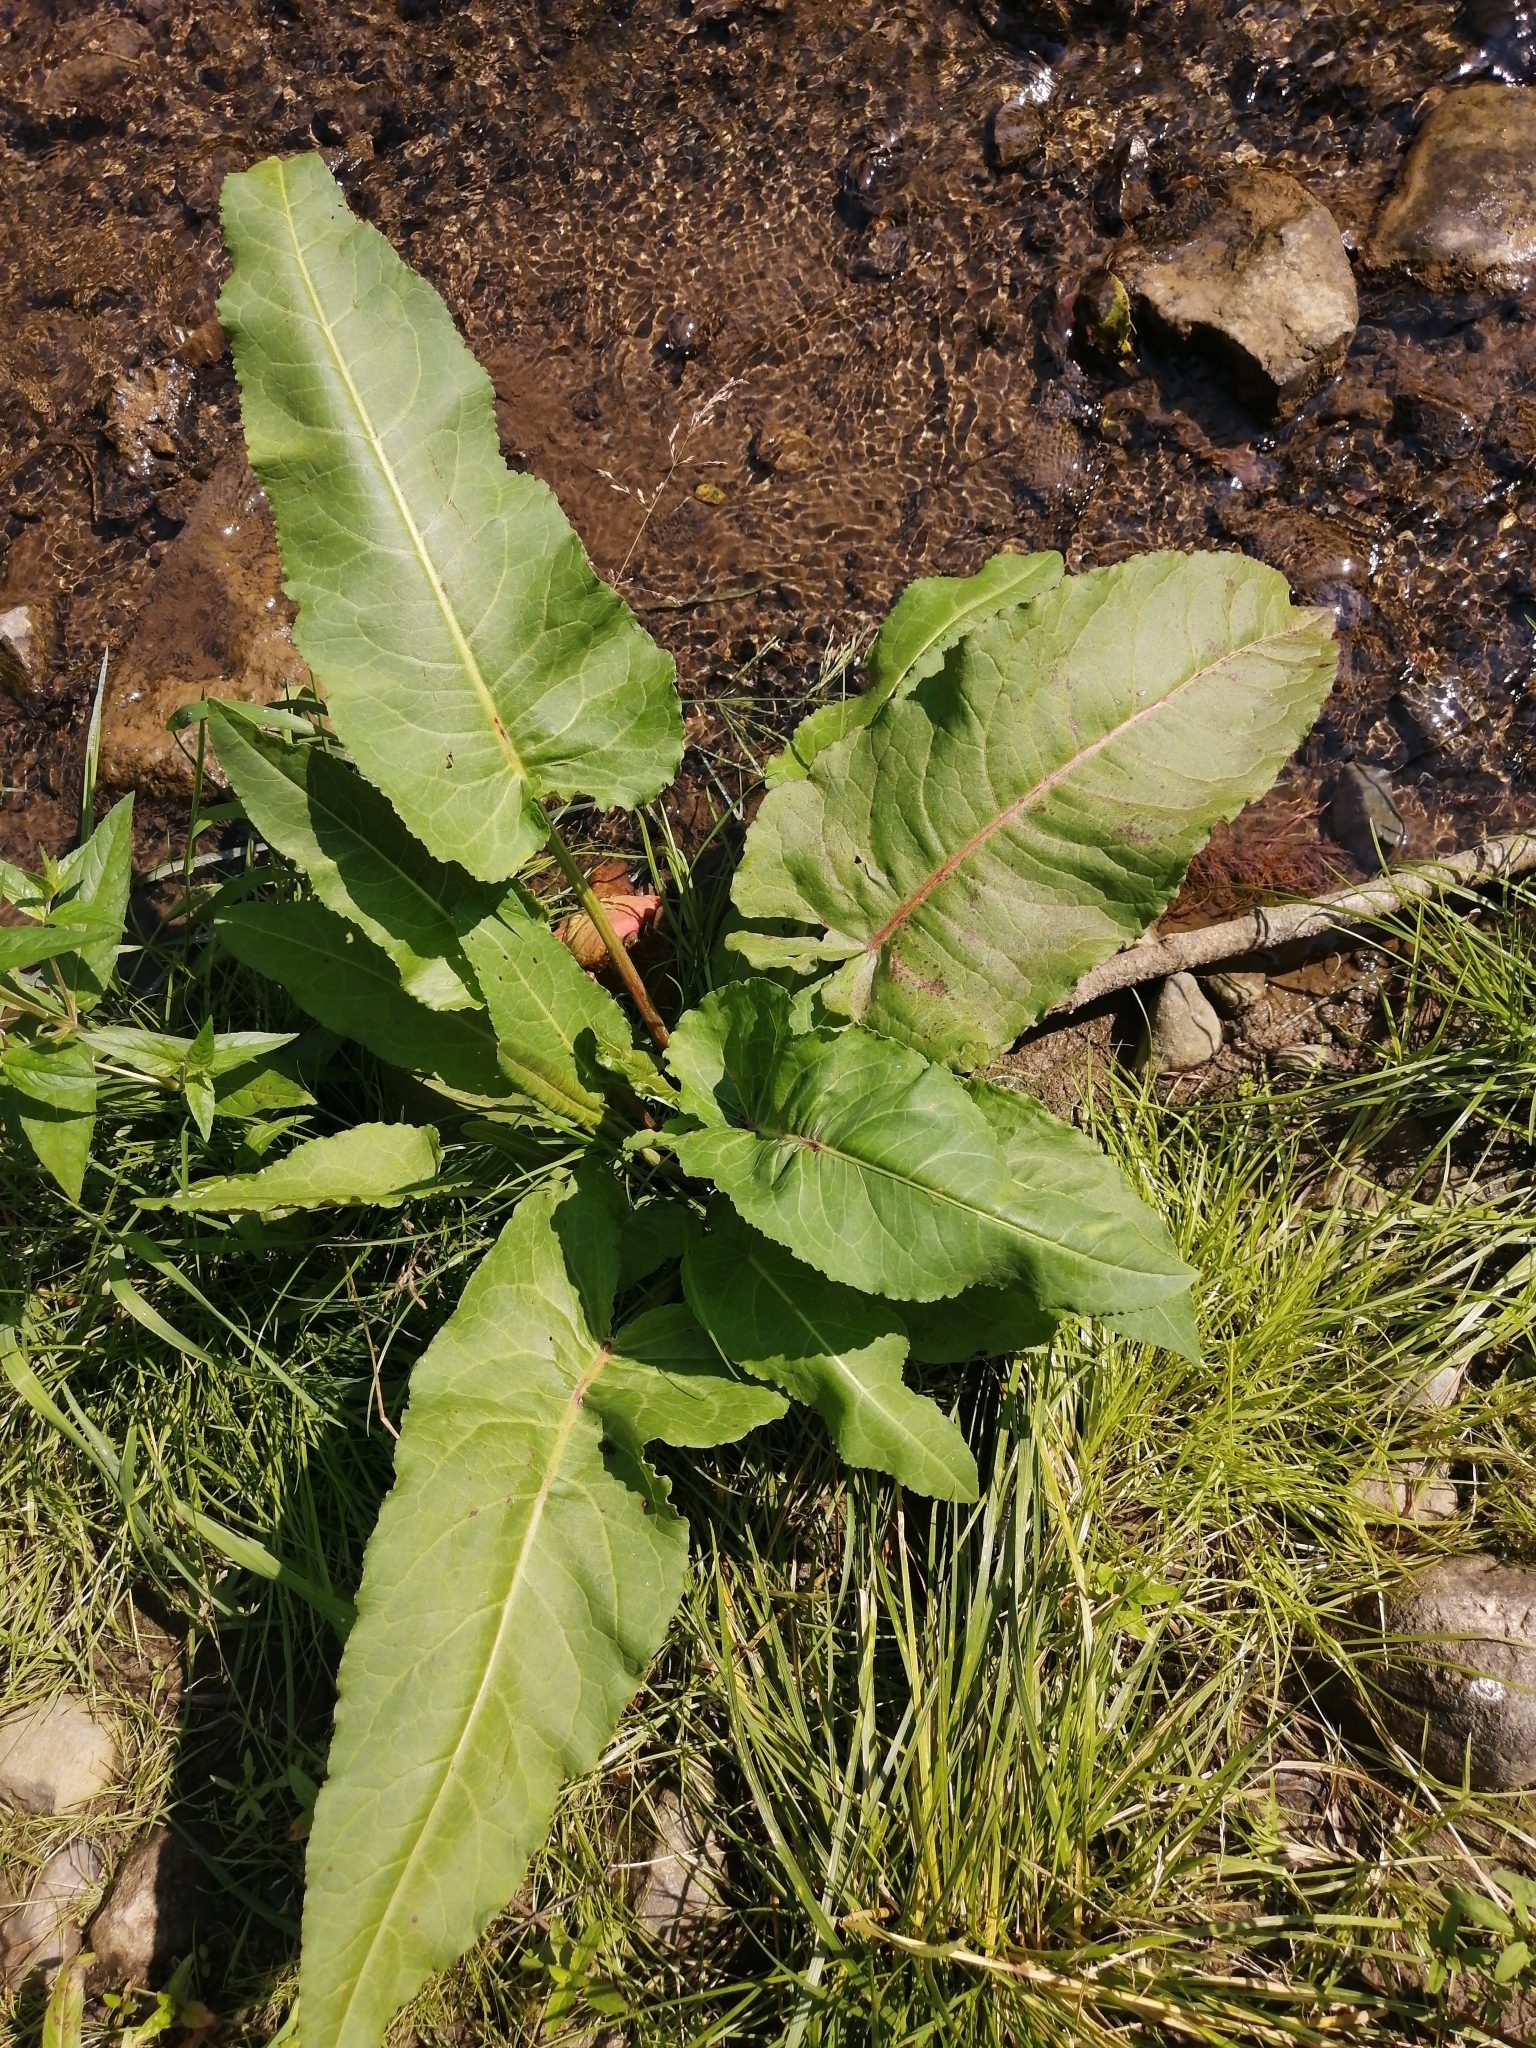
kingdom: Plantae
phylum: Tracheophyta
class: Magnoliopsida
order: Caryophyllales
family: Polygonaceae
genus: Rumex
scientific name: Rumex aquaticus
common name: Scottish dock
